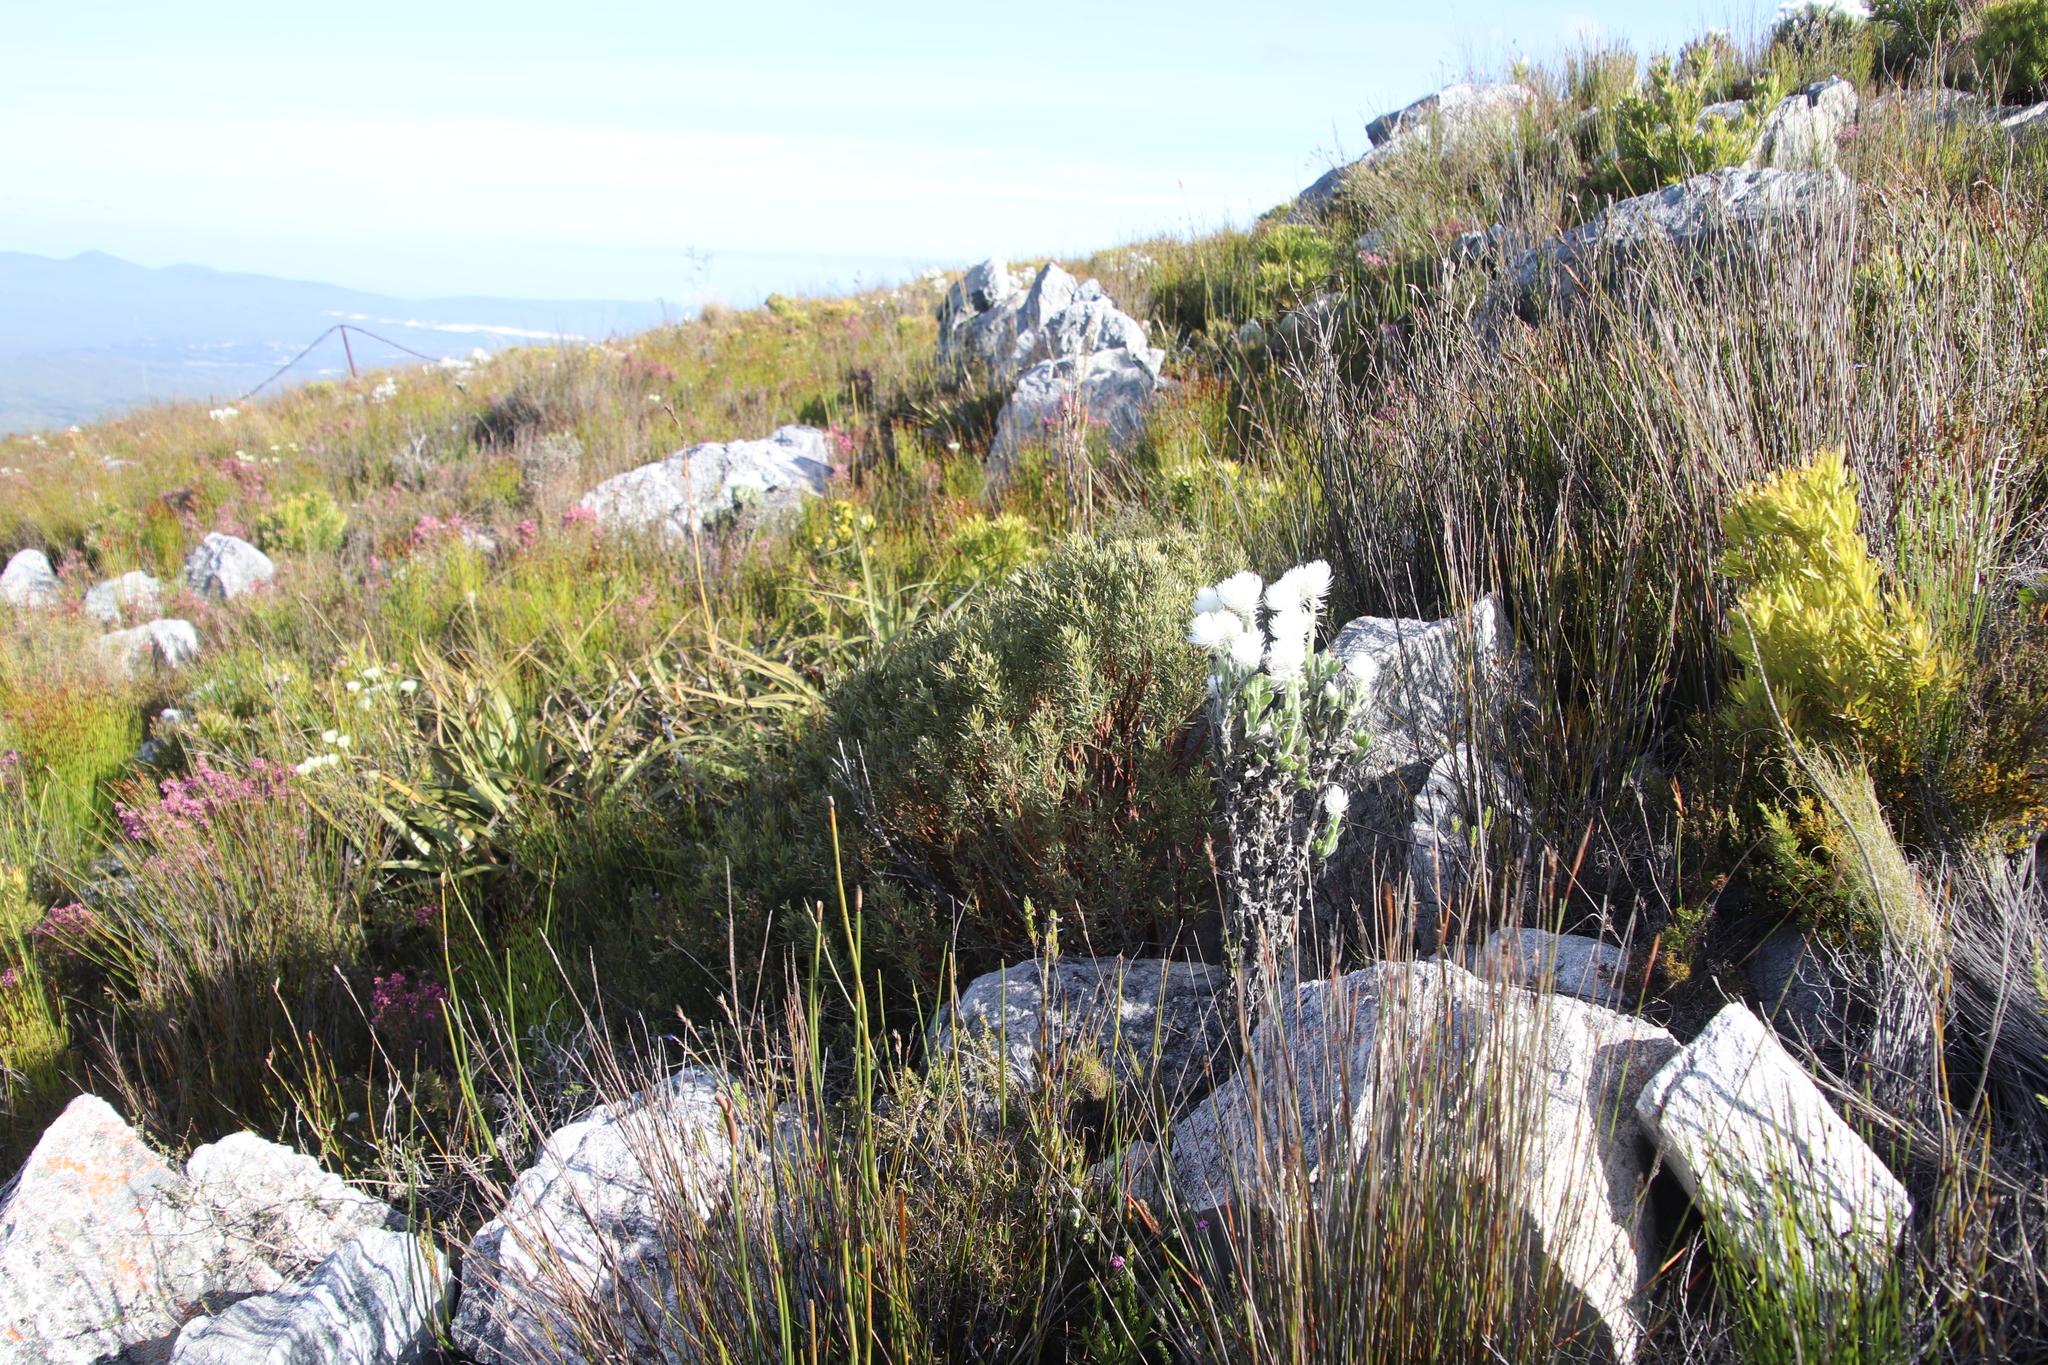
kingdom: Plantae
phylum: Tracheophyta
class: Magnoliopsida
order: Cornales
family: Grubbiaceae
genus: Grubbia
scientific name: Grubbia tomentosa
